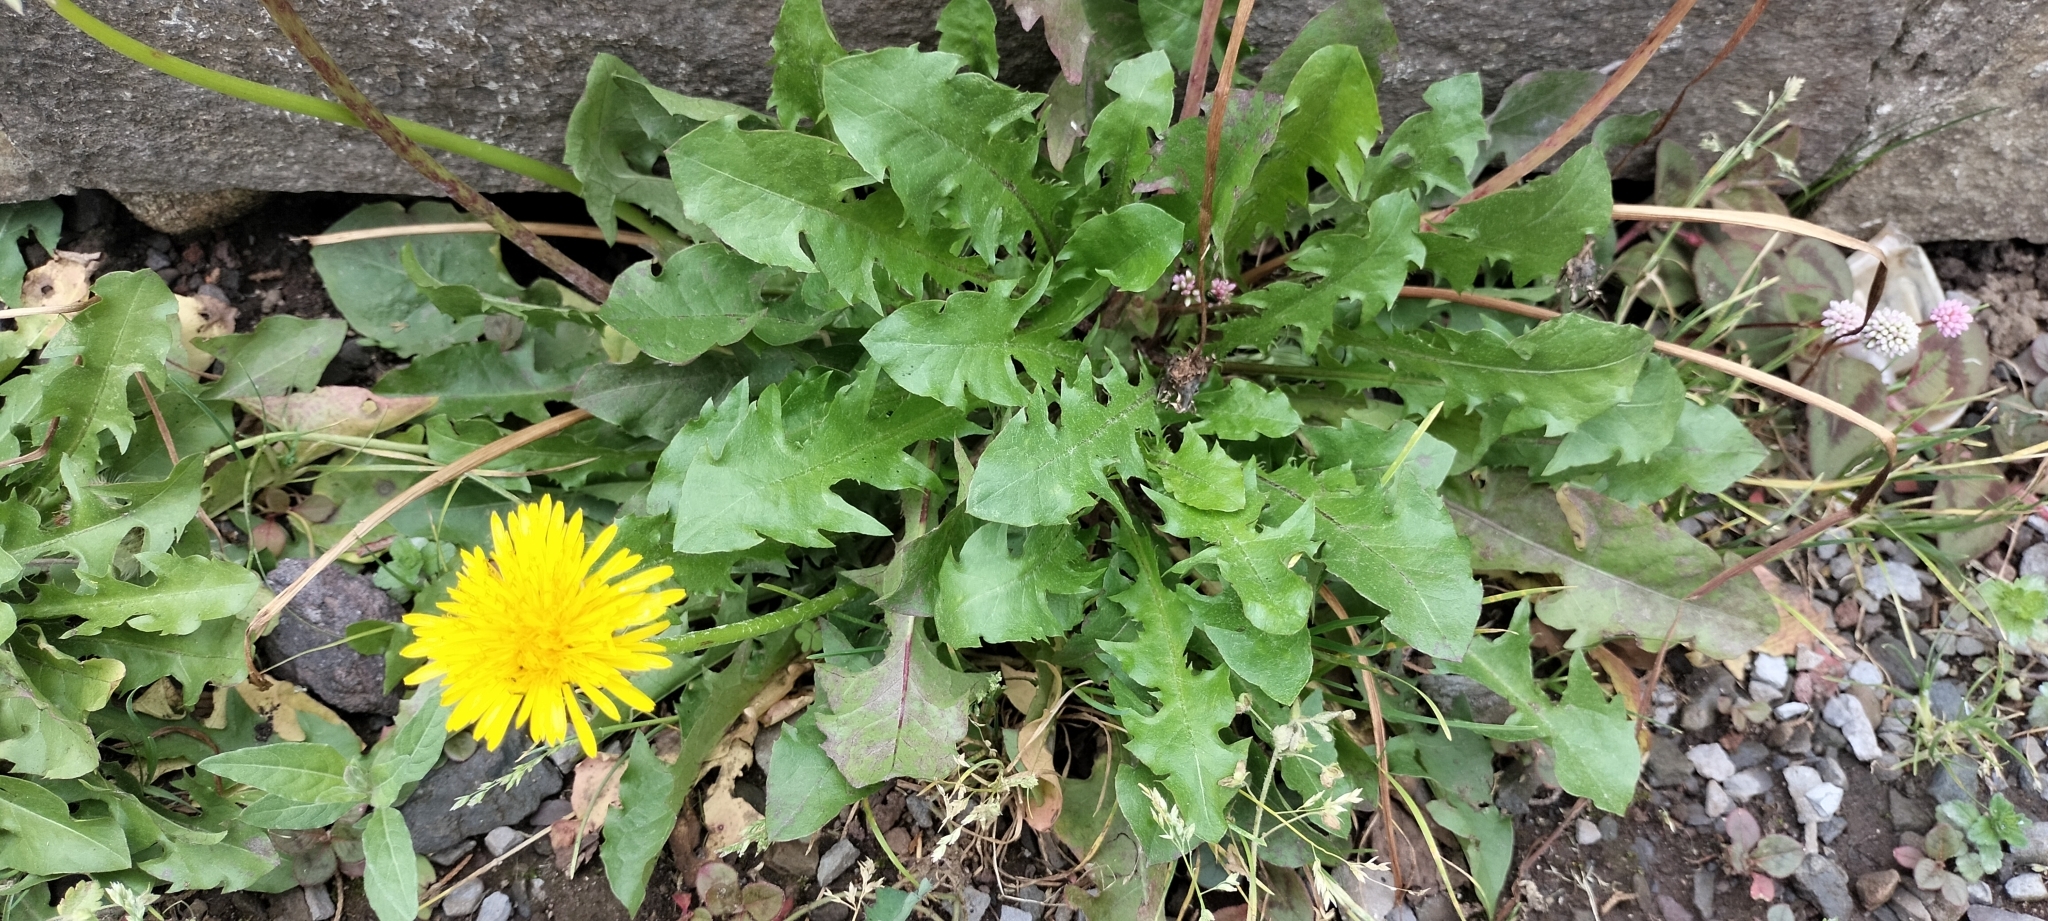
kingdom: Plantae
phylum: Tracheophyta
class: Magnoliopsida
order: Asterales
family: Asteraceae
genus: Taraxacum
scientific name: Taraxacum officinale
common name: Common dandelion
